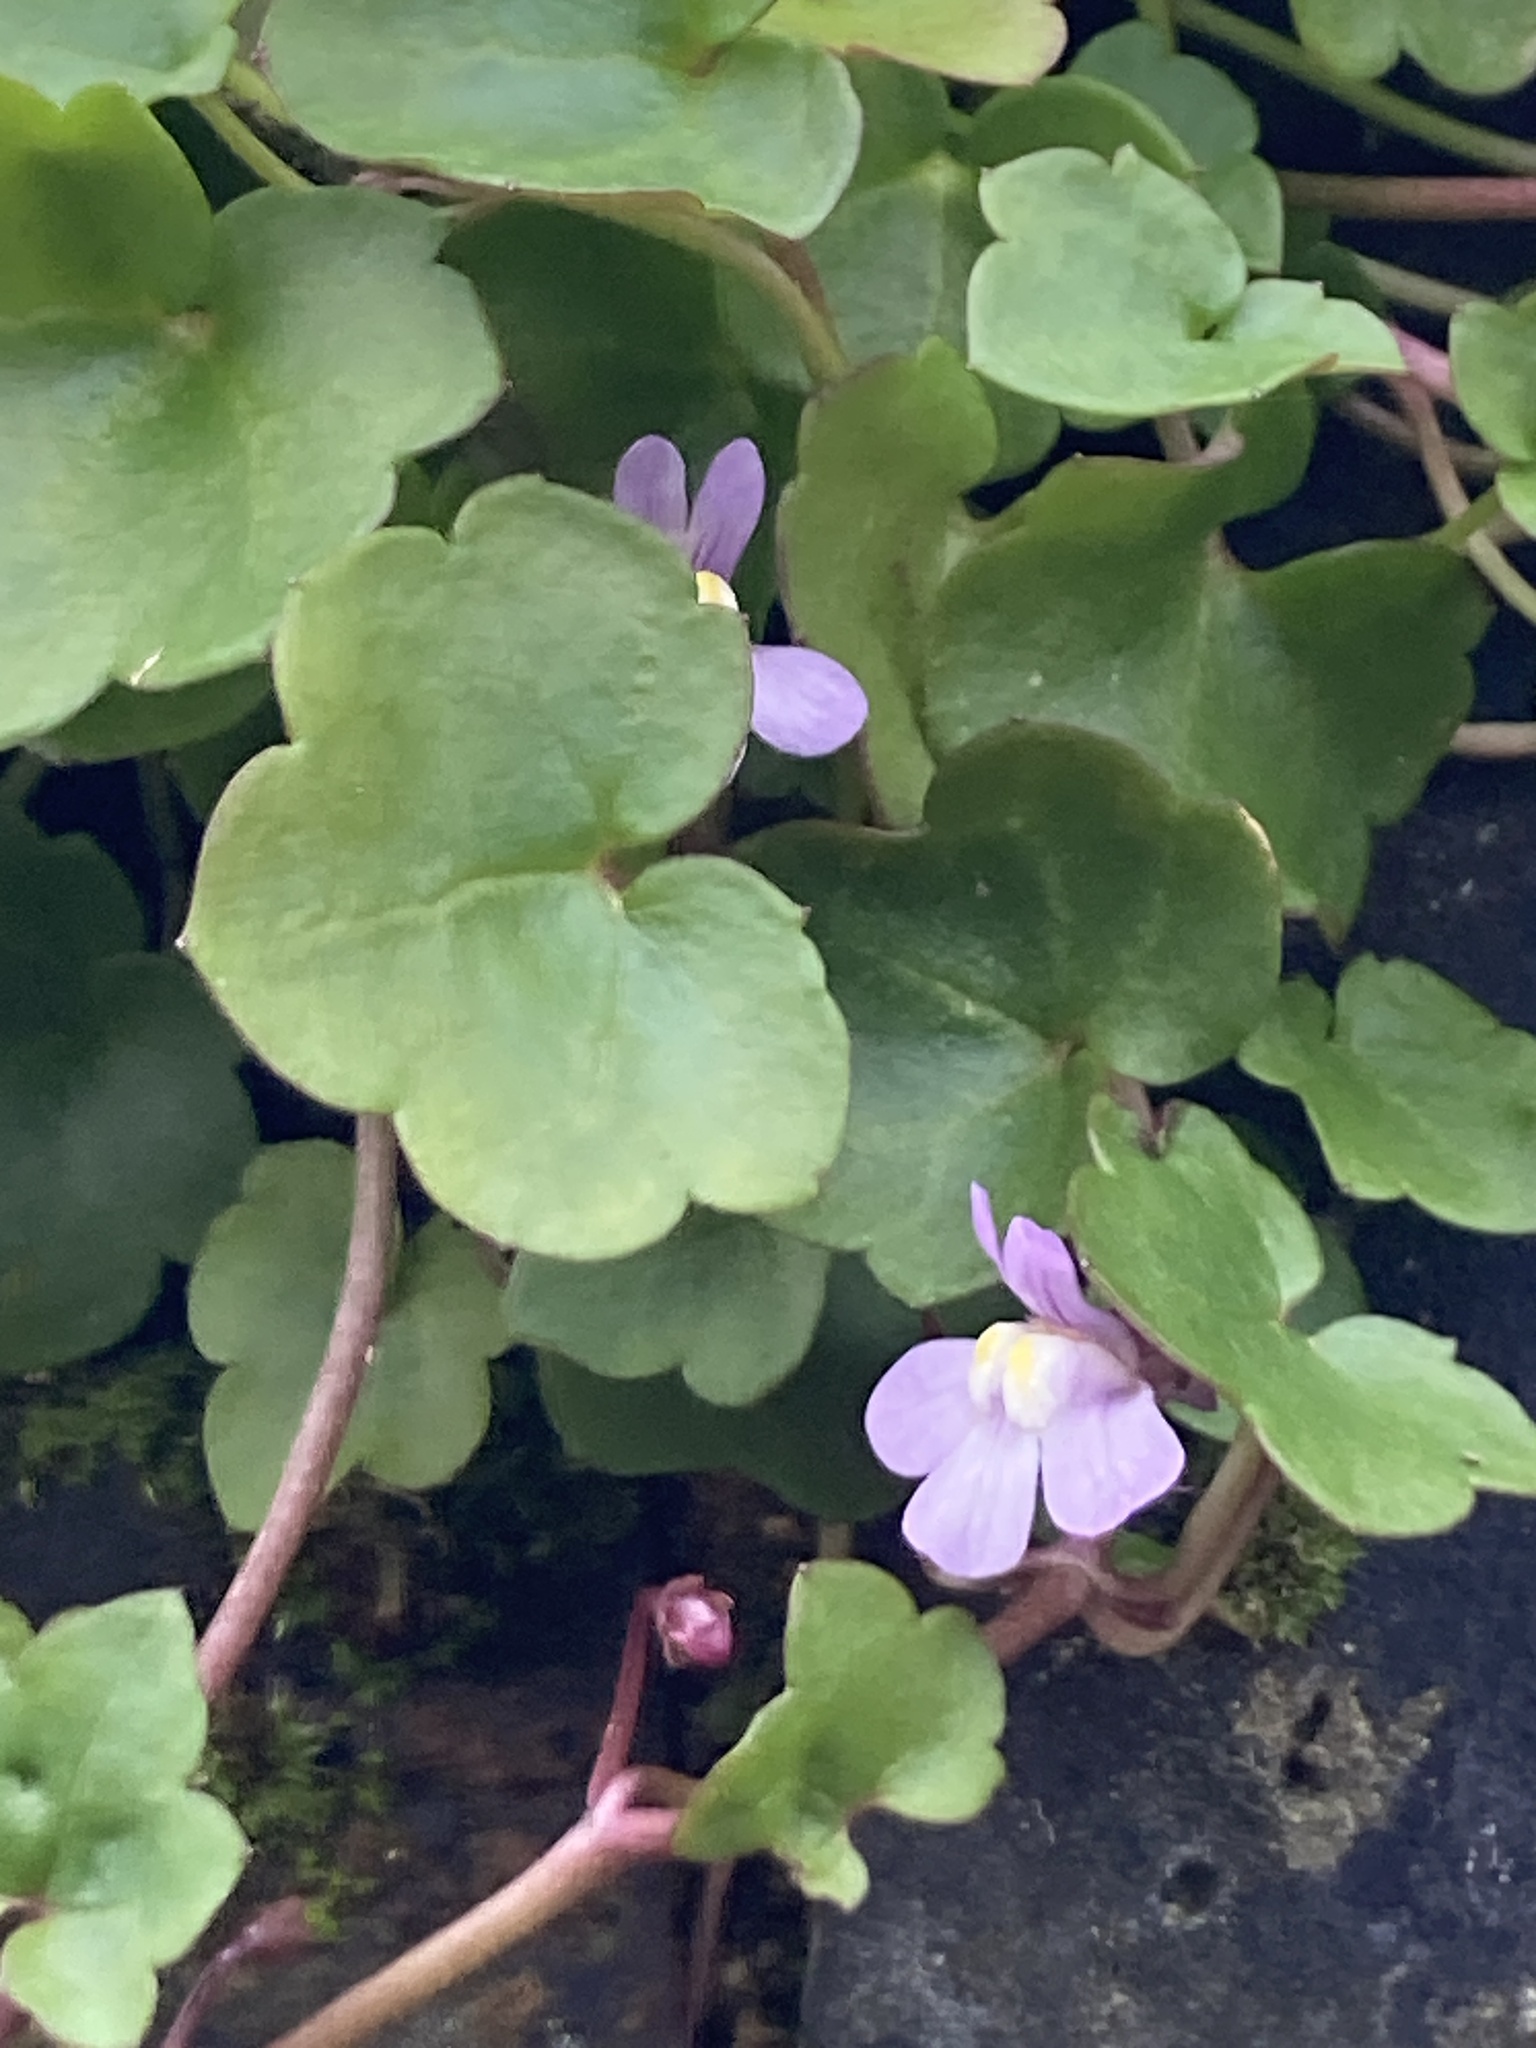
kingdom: Plantae
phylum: Tracheophyta
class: Magnoliopsida
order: Lamiales
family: Plantaginaceae
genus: Cymbalaria
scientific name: Cymbalaria muralis
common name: Ivy-leaved toadflax
